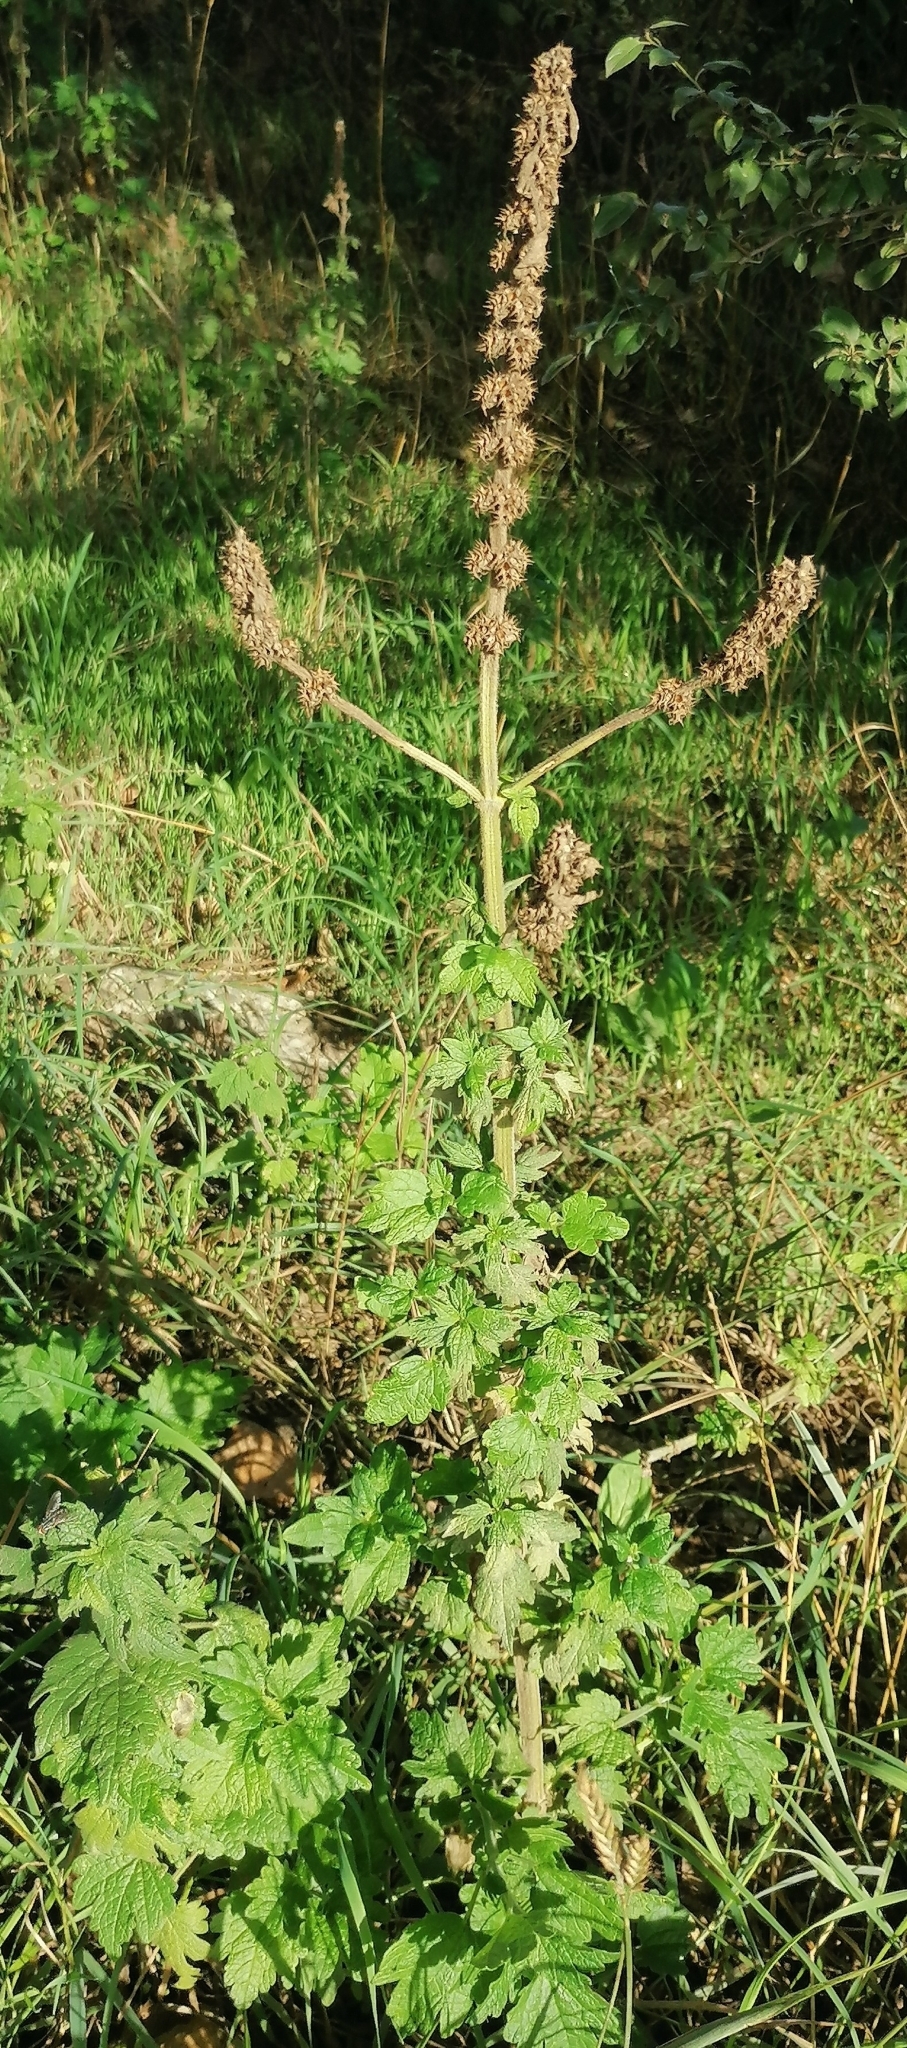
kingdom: Plantae
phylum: Tracheophyta
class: Magnoliopsida
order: Lamiales
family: Lamiaceae
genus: Leonurus
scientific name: Leonurus quinquelobatus
